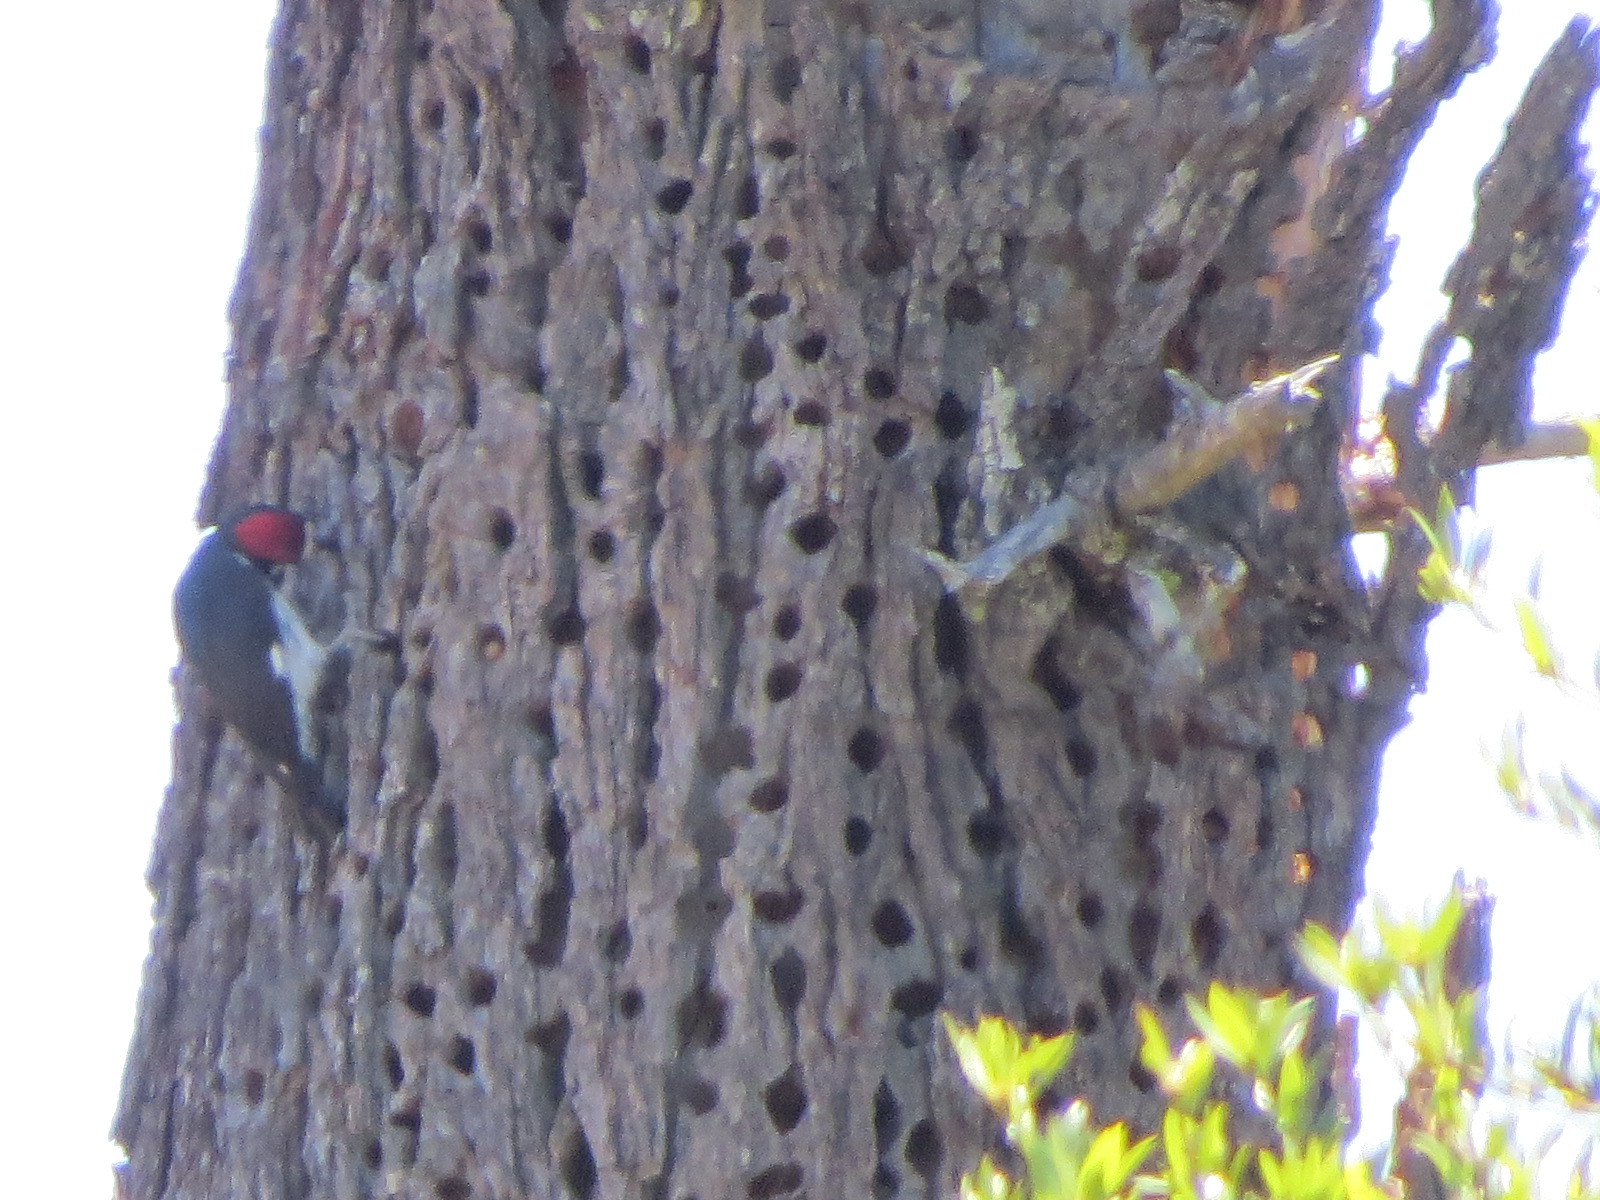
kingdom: Animalia
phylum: Chordata
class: Aves
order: Piciformes
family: Picidae
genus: Melanerpes
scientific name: Melanerpes formicivorus
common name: Acorn woodpecker
